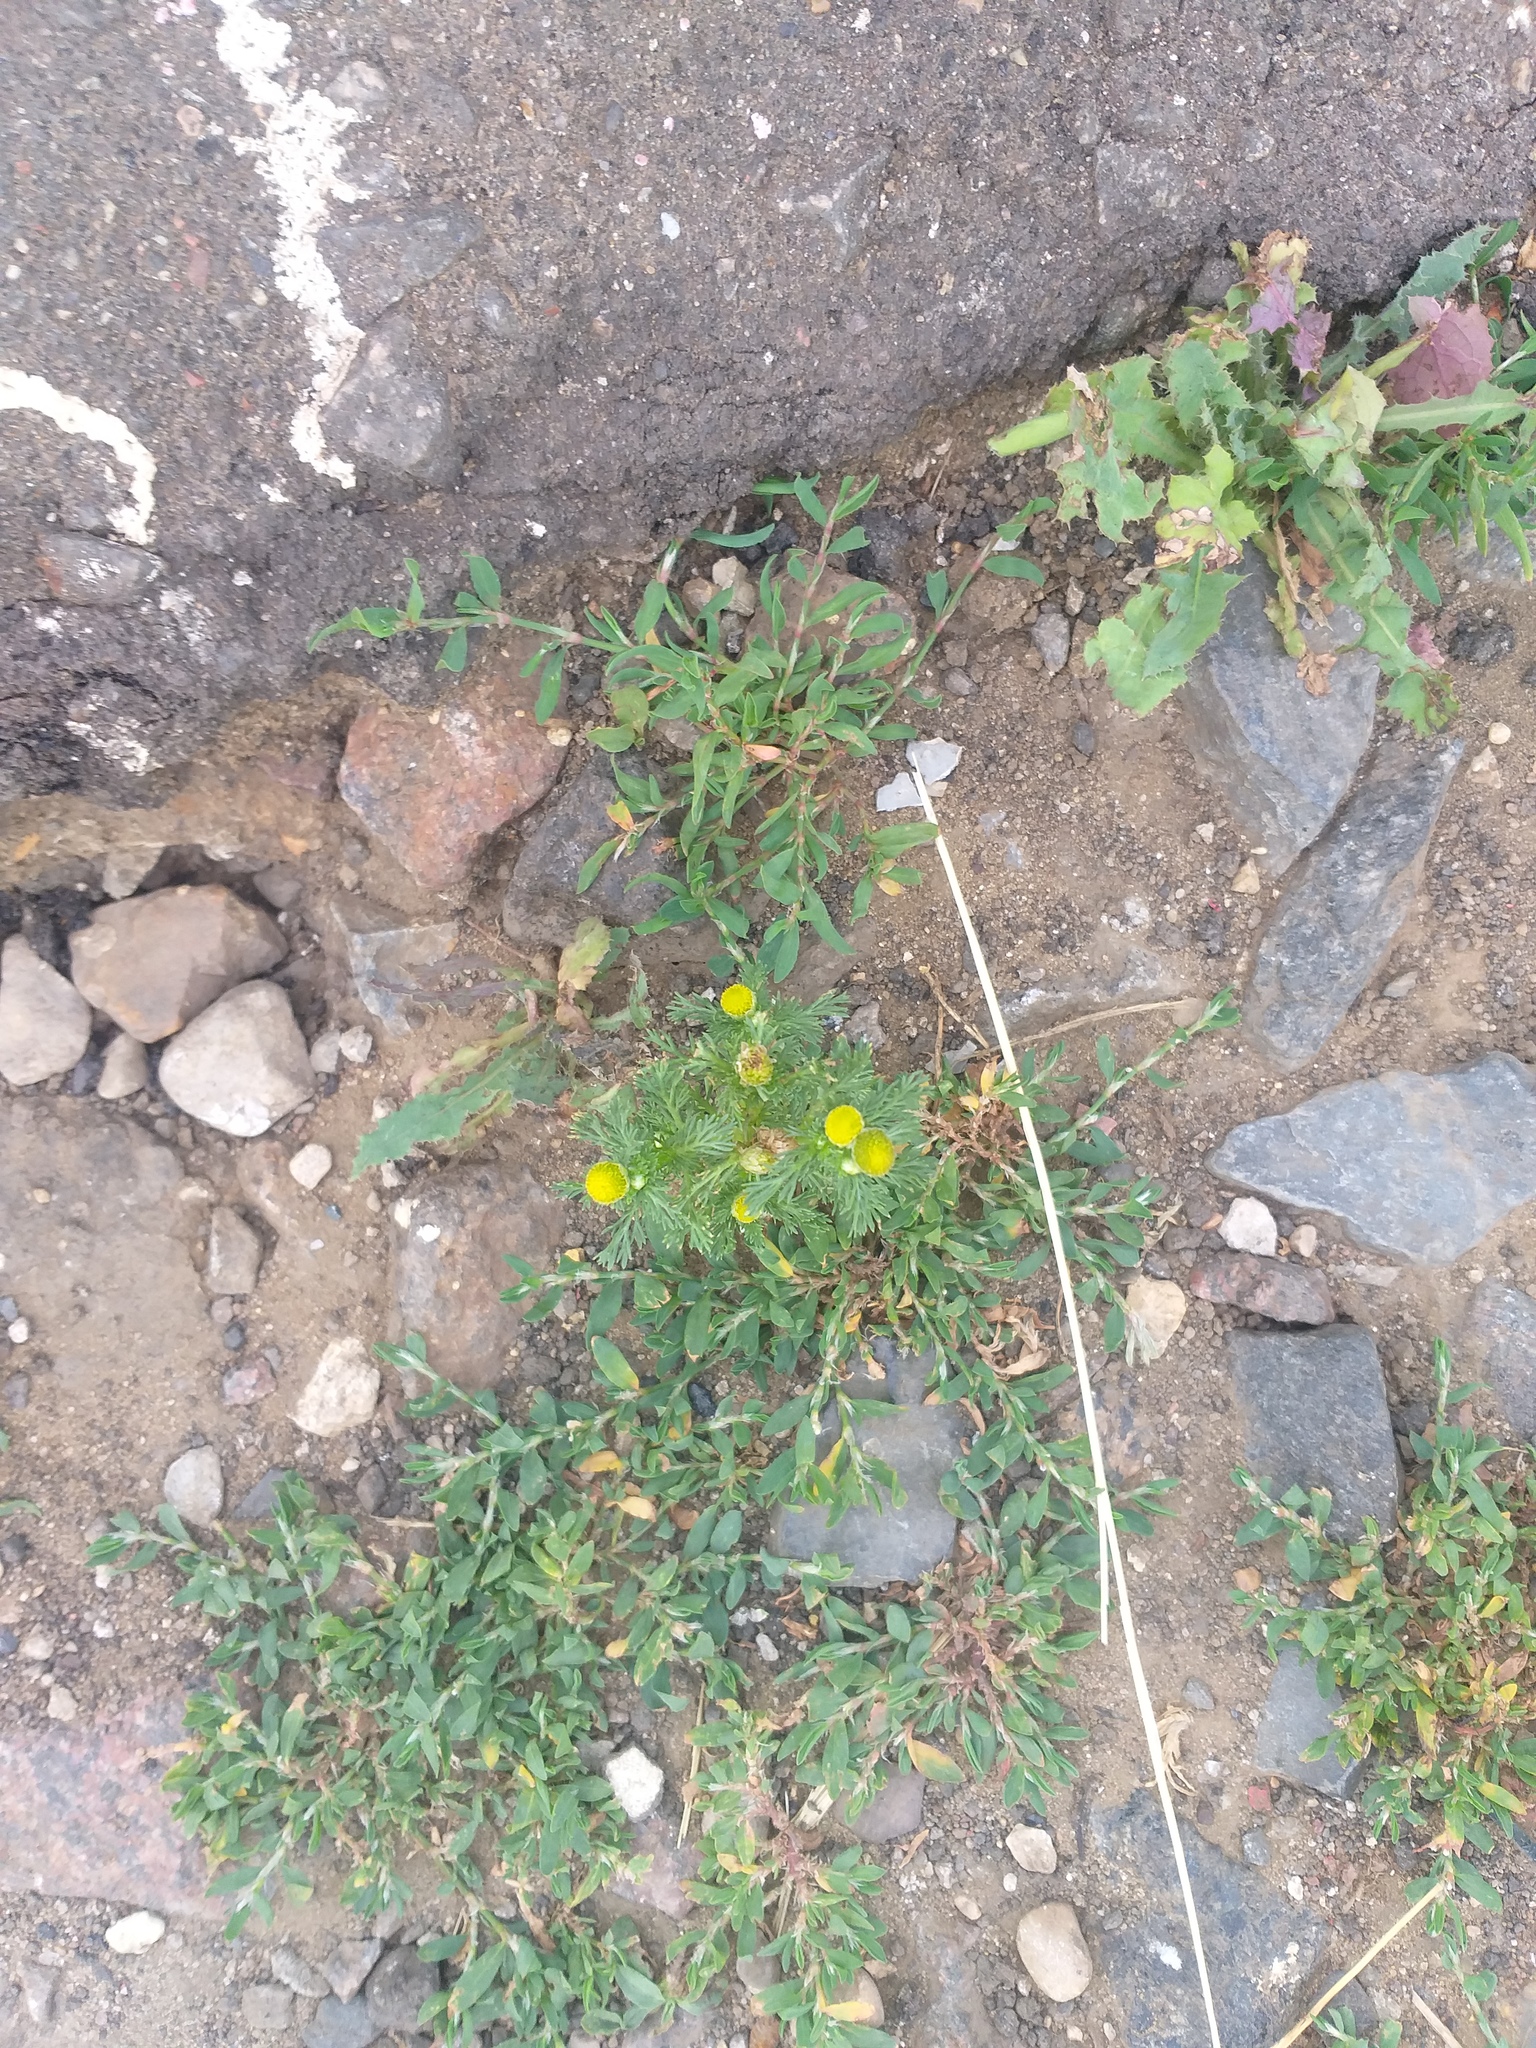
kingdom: Plantae
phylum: Tracheophyta
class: Magnoliopsida
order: Asterales
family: Asteraceae
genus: Matricaria
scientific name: Matricaria discoidea
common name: Disc mayweed
